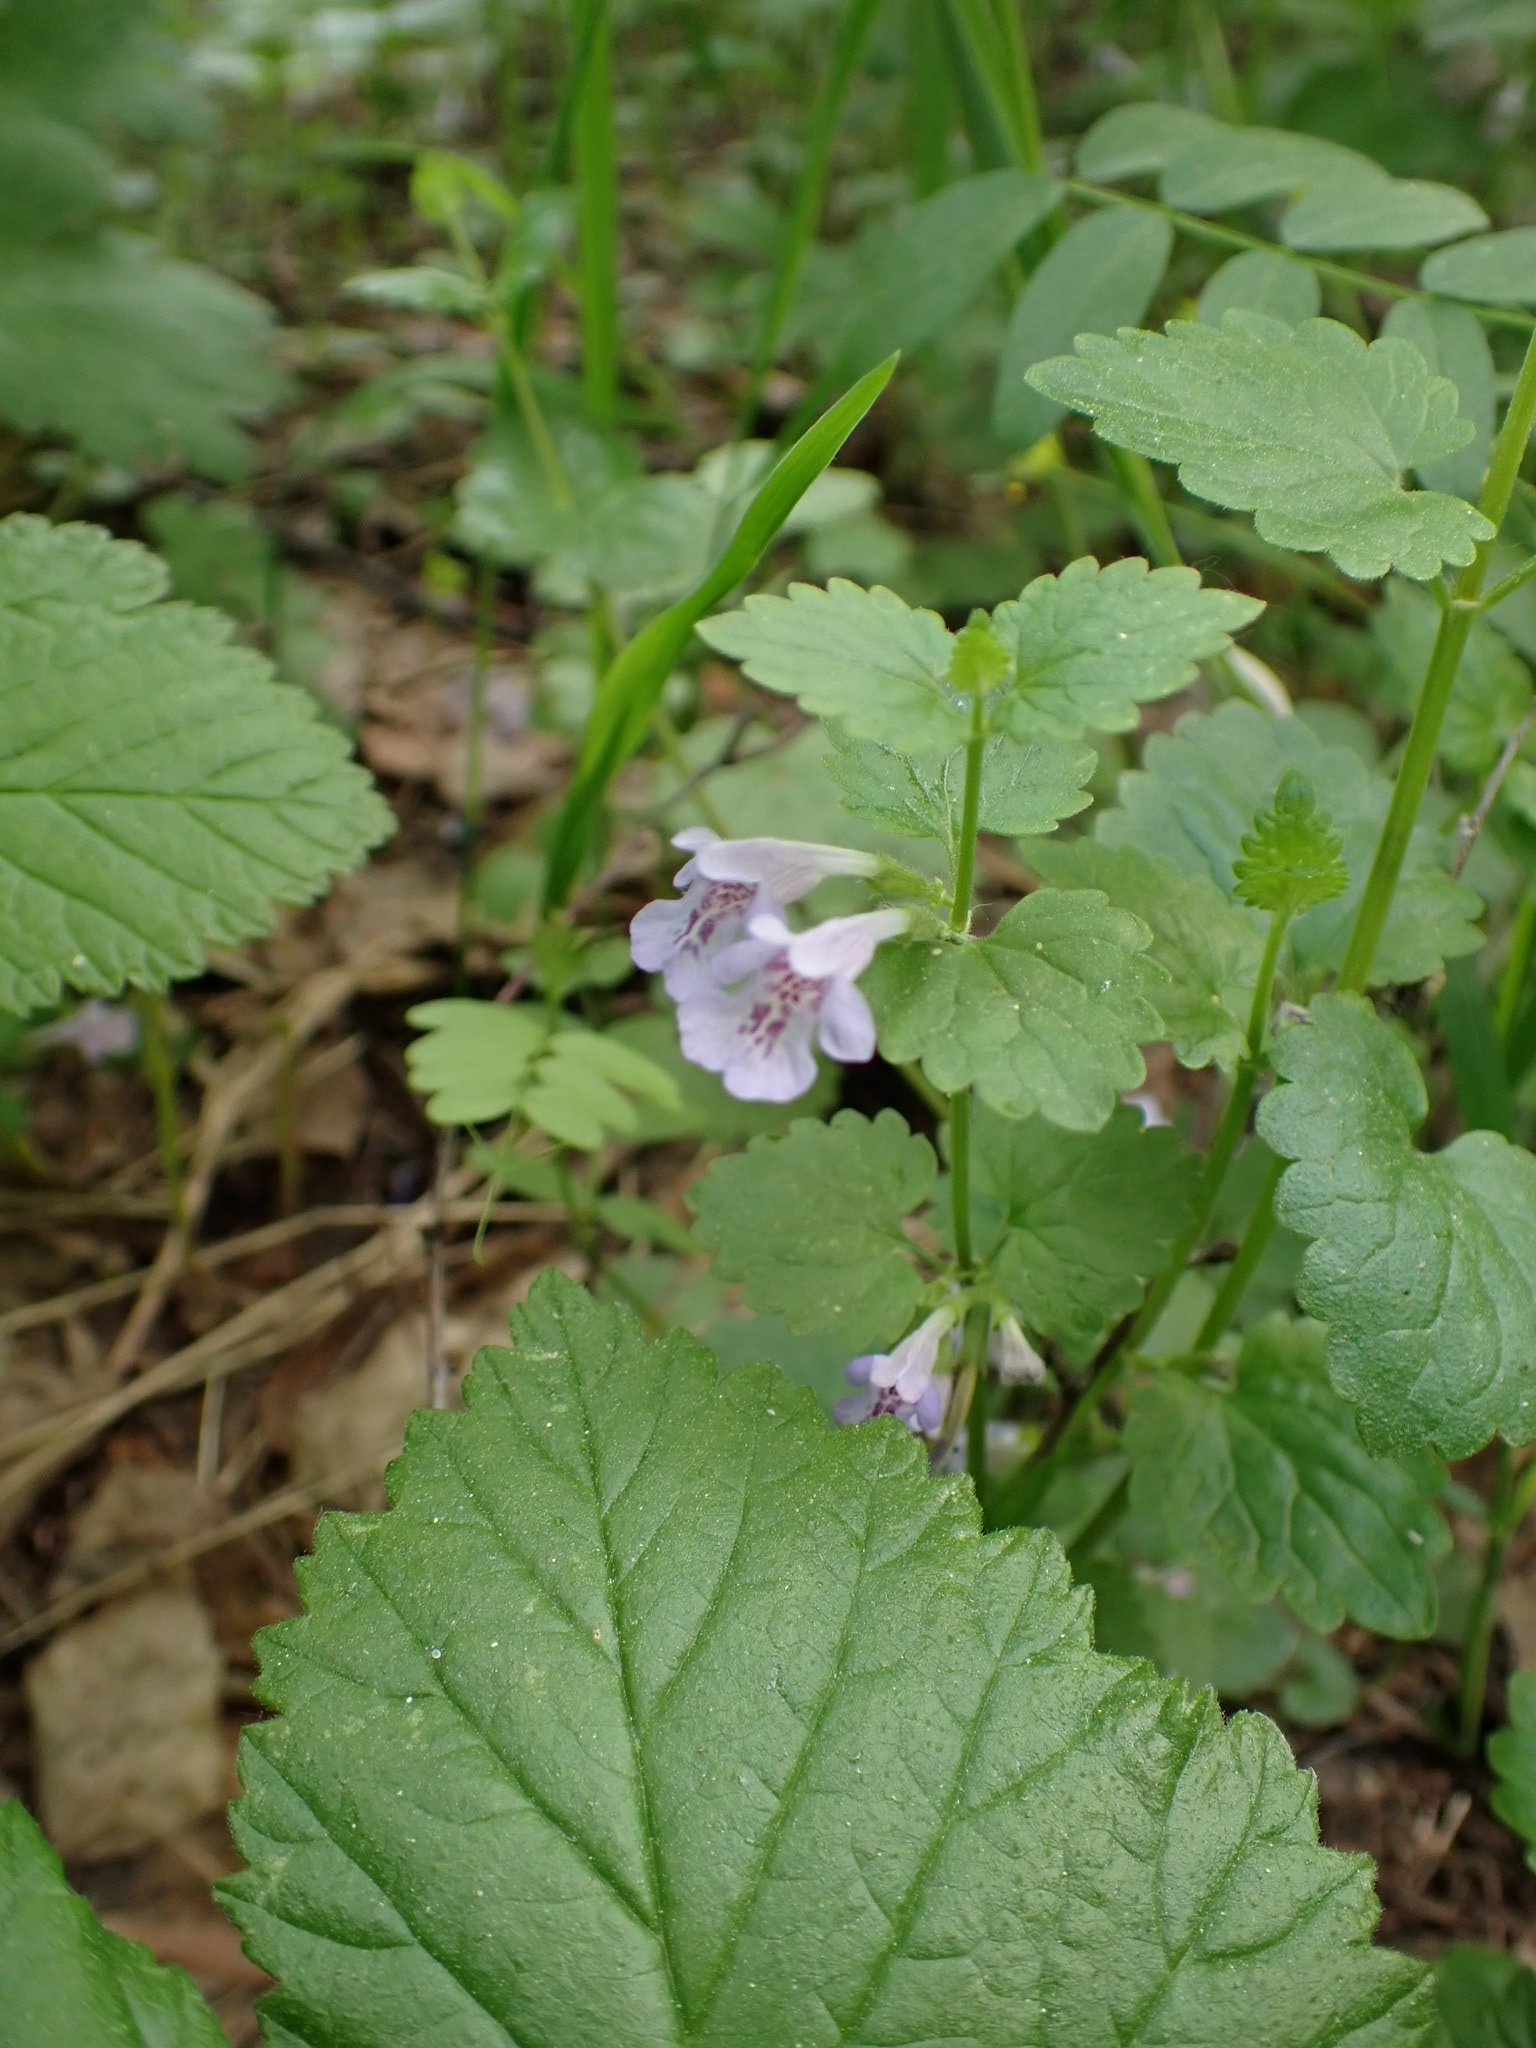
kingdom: Plantae
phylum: Tracheophyta
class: Magnoliopsida
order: Lamiales
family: Lamiaceae
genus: Glechoma
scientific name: Glechoma hederacea
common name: Ground ivy
